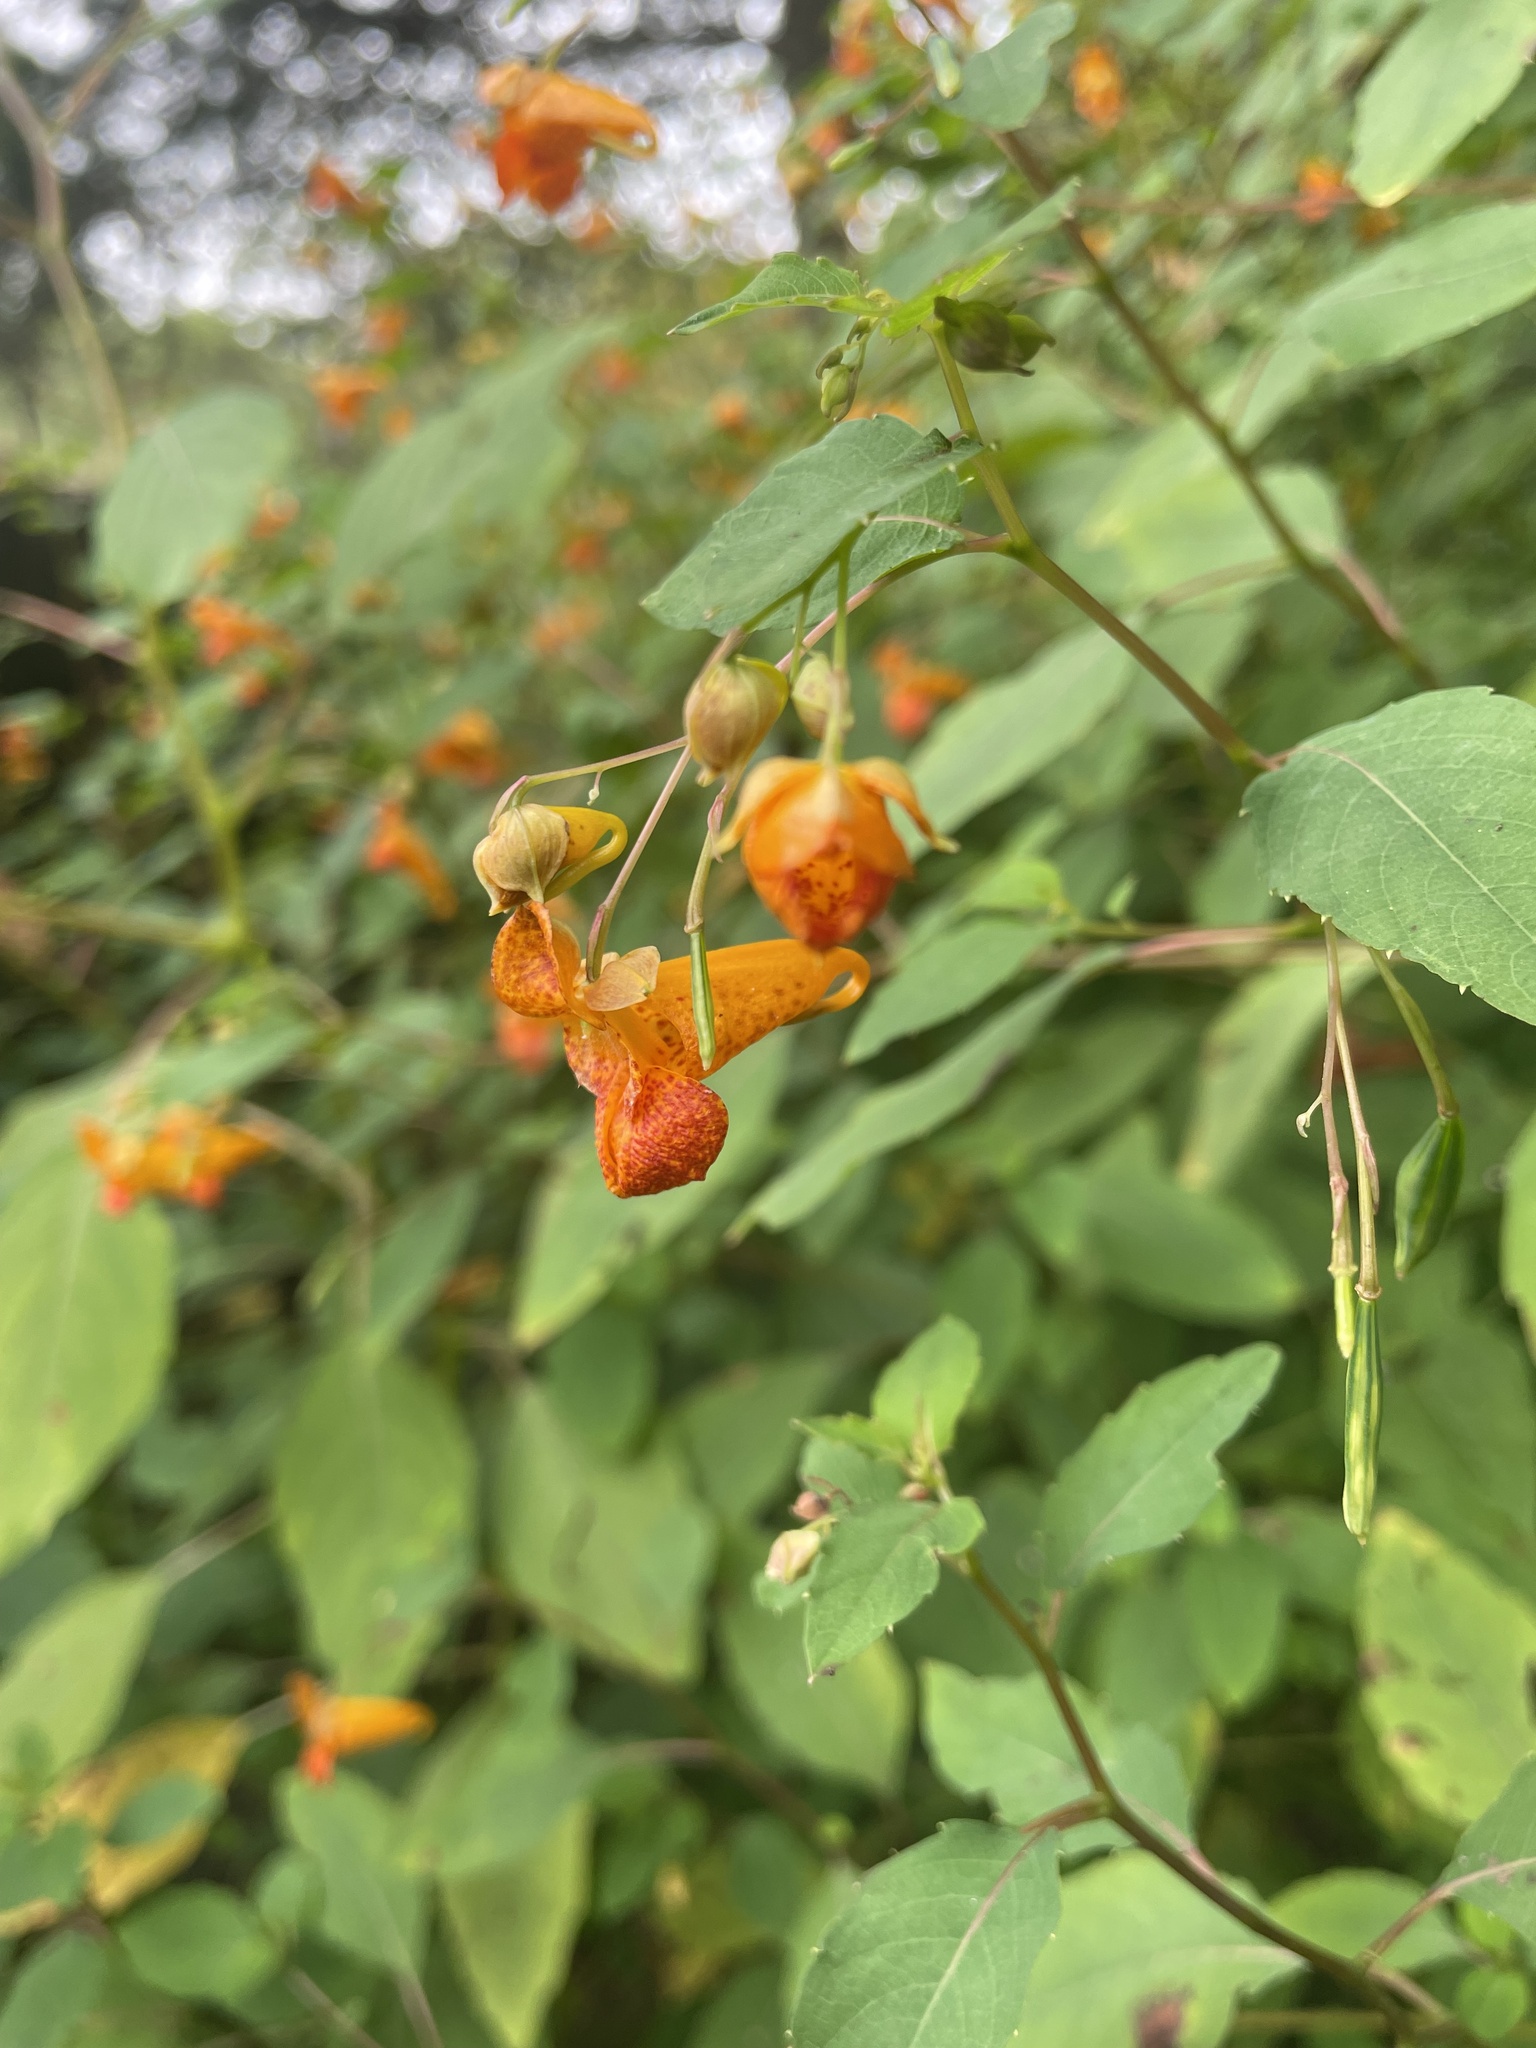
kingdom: Plantae
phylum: Tracheophyta
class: Magnoliopsida
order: Ericales
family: Balsaminaceae
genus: Impatiens
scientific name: Impatiens capensis
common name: Orange balsam
